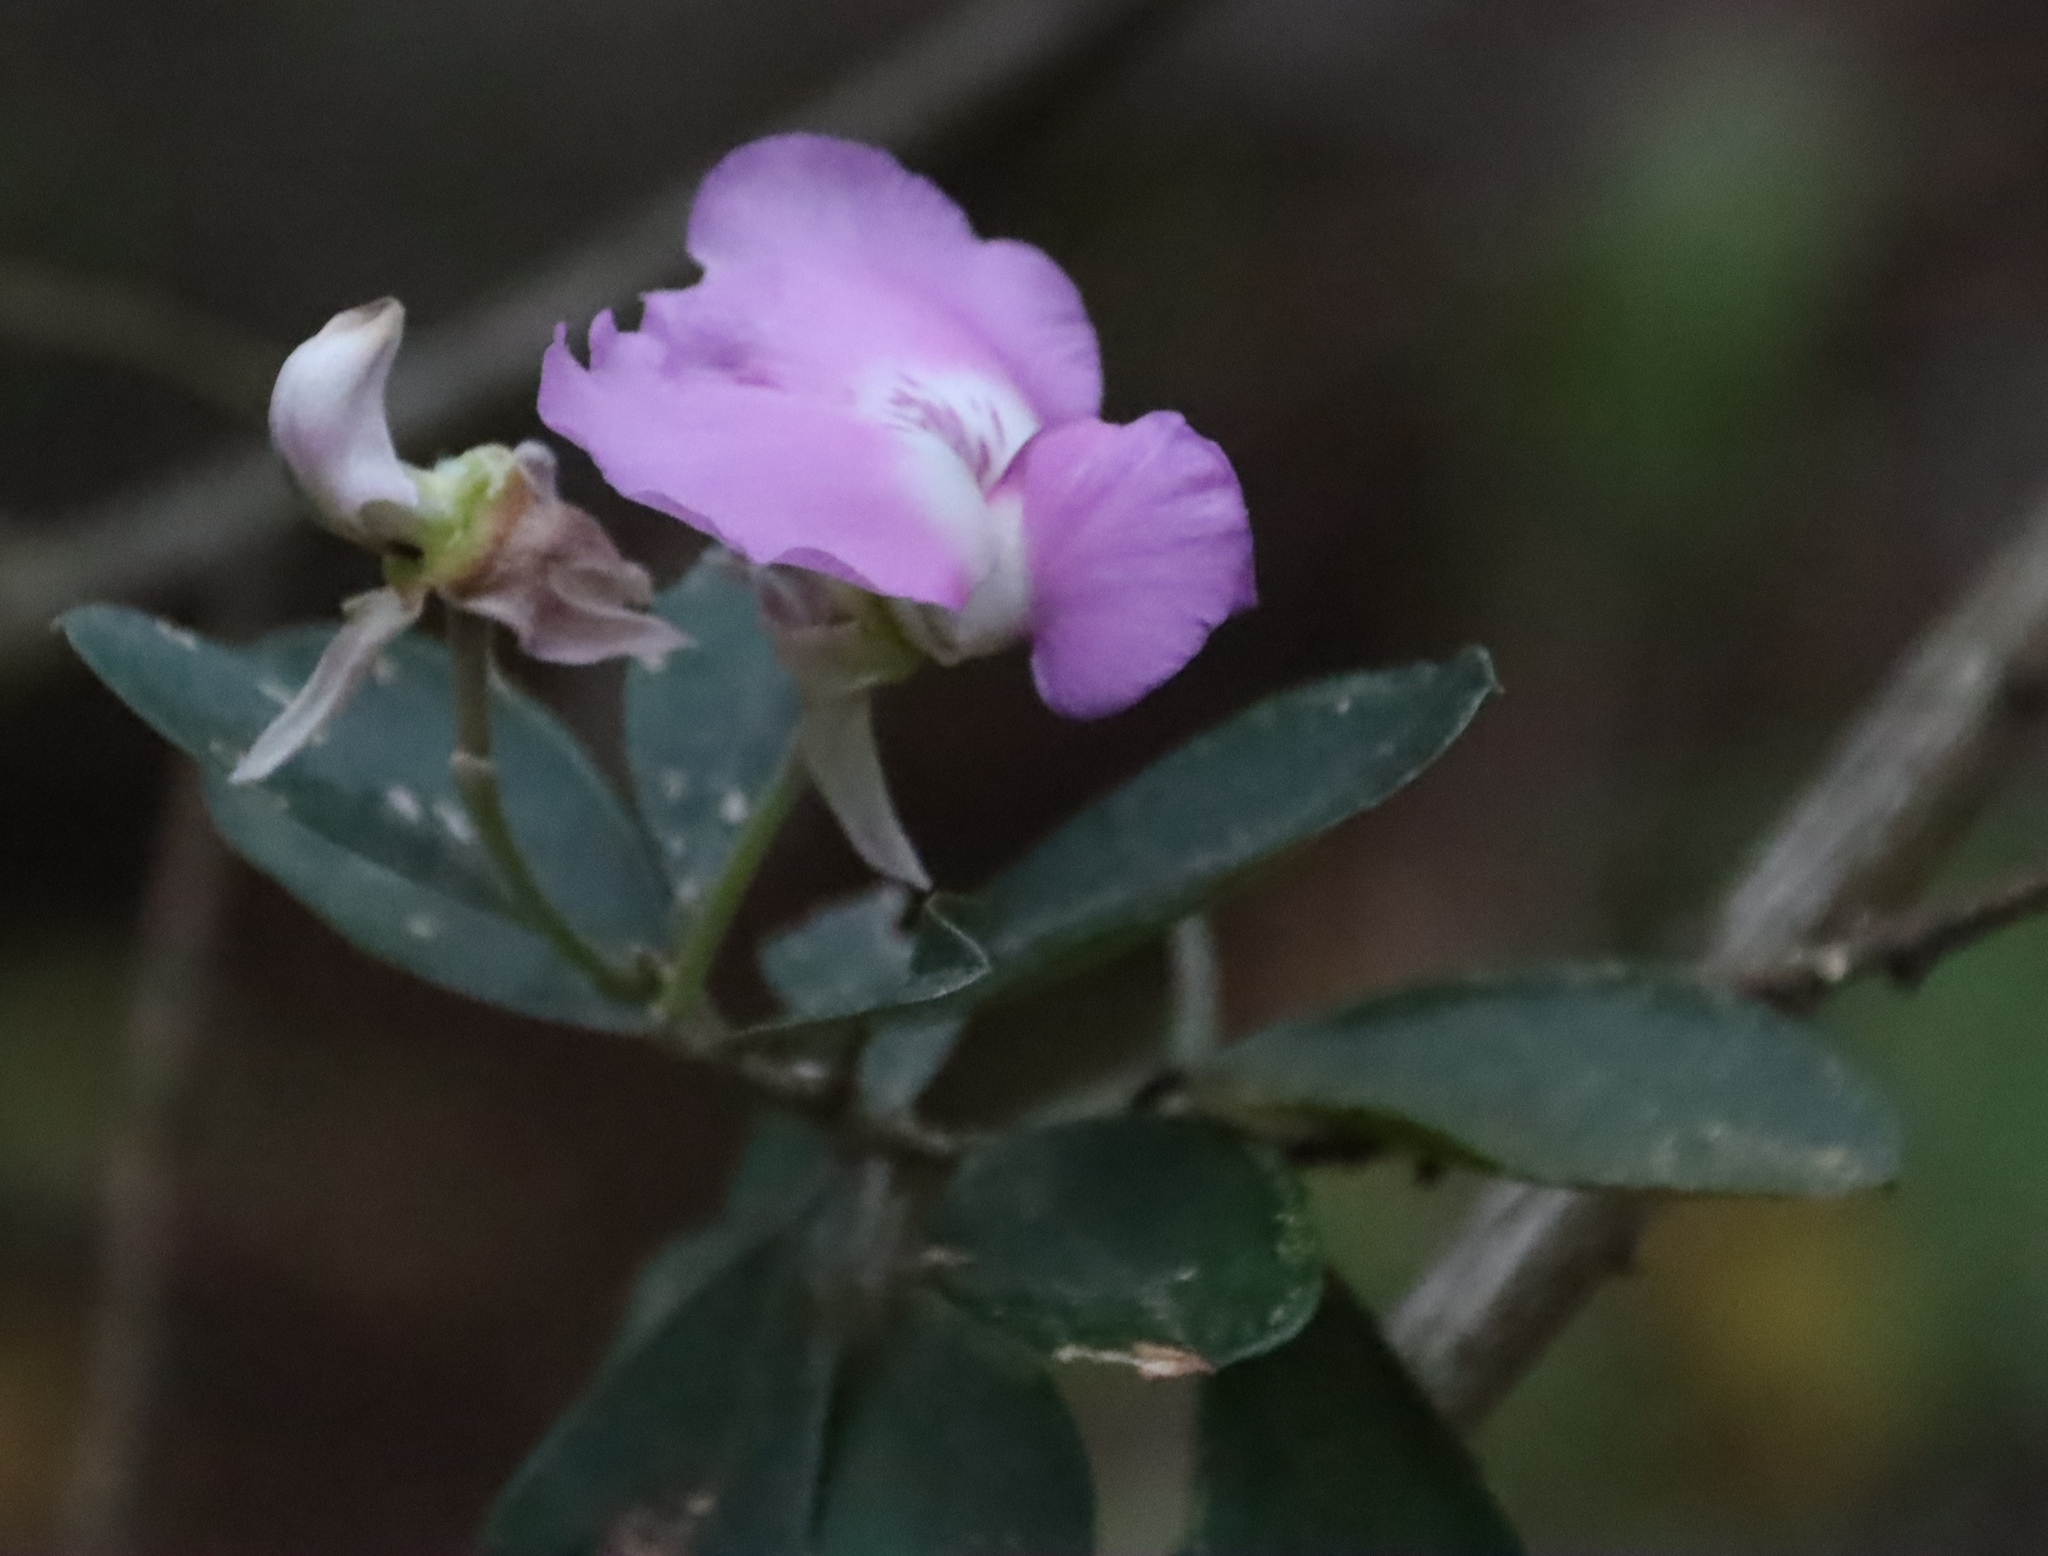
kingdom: Plantae
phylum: Tracheophyta
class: Magnoliopsida
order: Fabales
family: Fabaceae
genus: Podalyria
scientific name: Podalyria calyptrata
